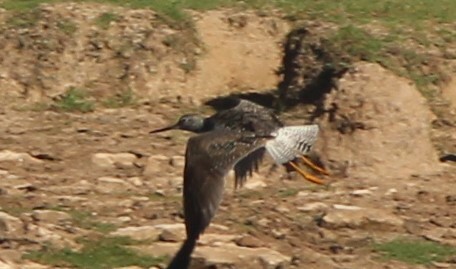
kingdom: Animalia
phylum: Chordata
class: Aves
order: Charadriiformes
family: Scolopacidae
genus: Tringa
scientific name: Tringa melanoleuca
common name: Greater yellowlegs
